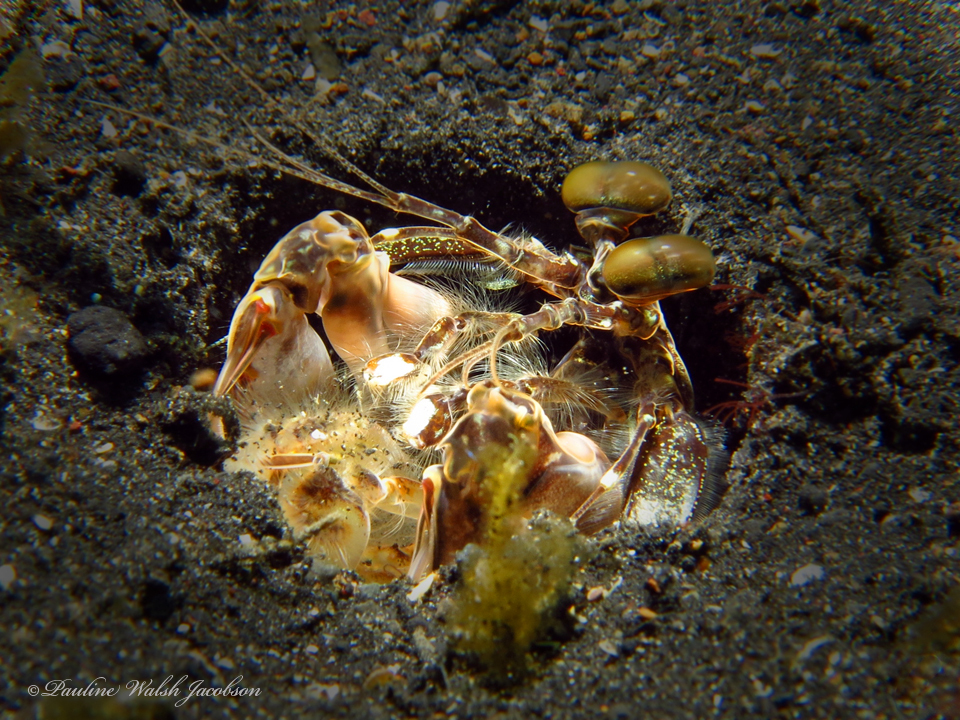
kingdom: Animalia
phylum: Arthropoda
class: Malacostraca
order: Stomatopoda
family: Lysiosquillidae
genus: Lysiosquilla
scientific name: Lysiosquilla maculata
